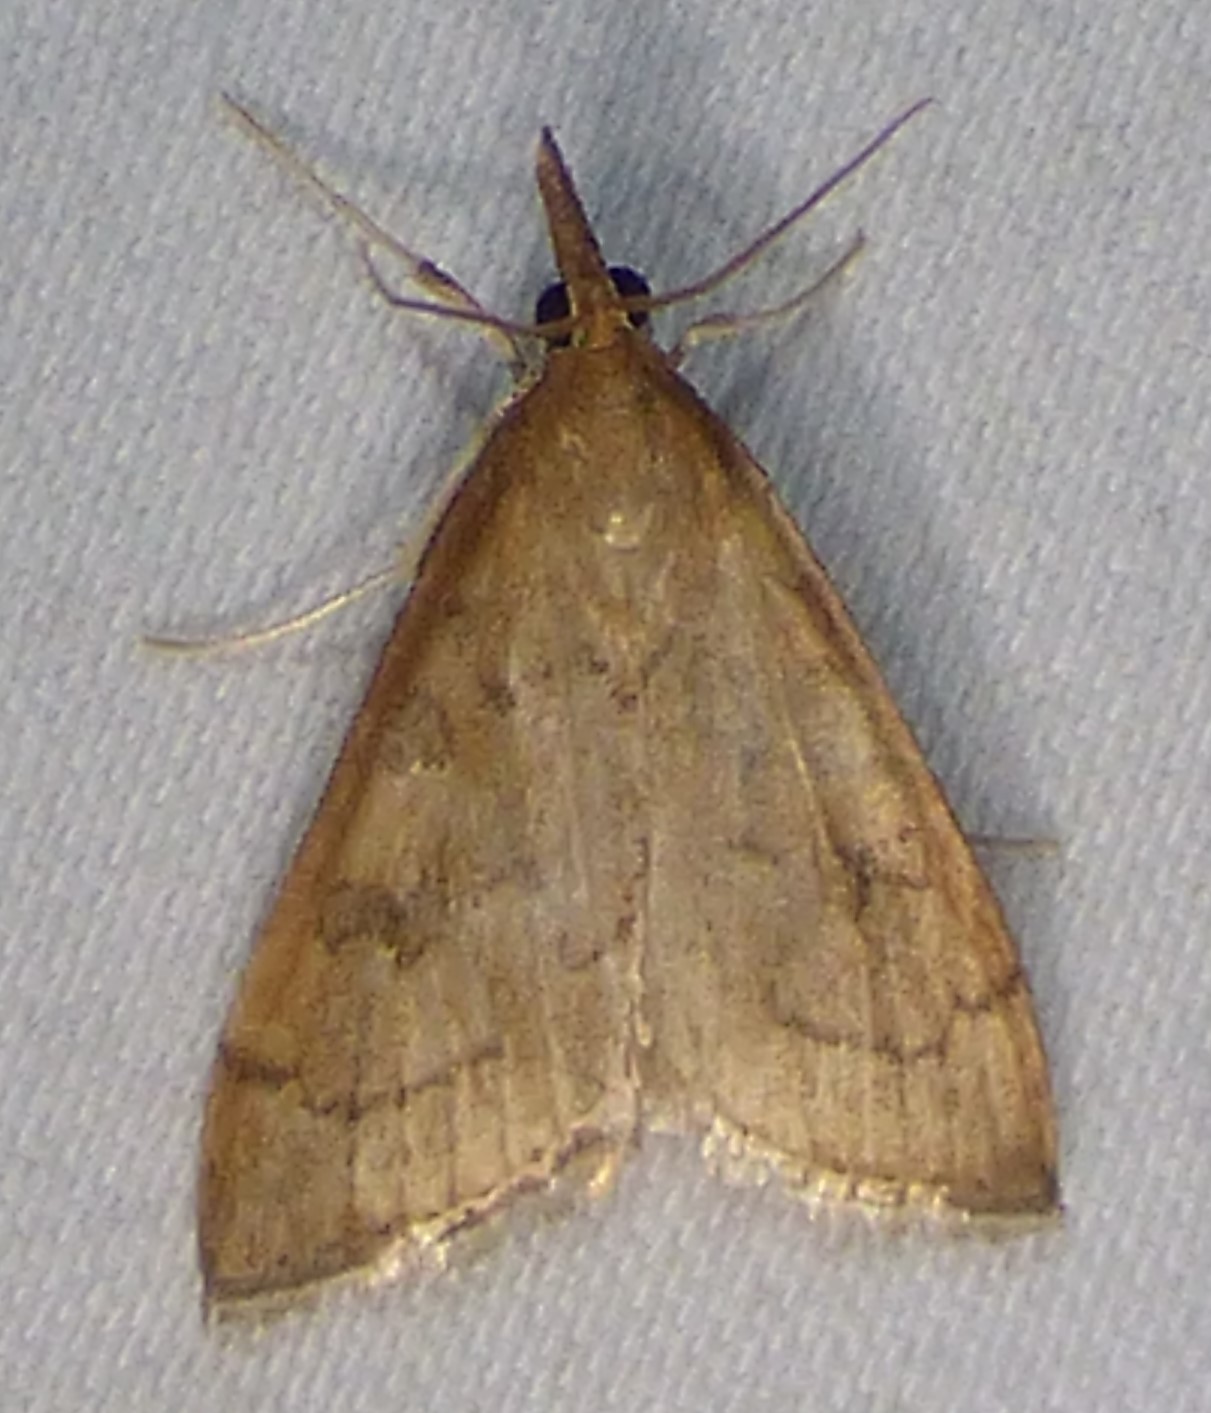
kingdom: Animalia
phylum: Arthropoda
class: Insecta
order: Lepidoptera
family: Crambidae
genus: Udea
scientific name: Udea rubigalis
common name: Celery leaftier moth
